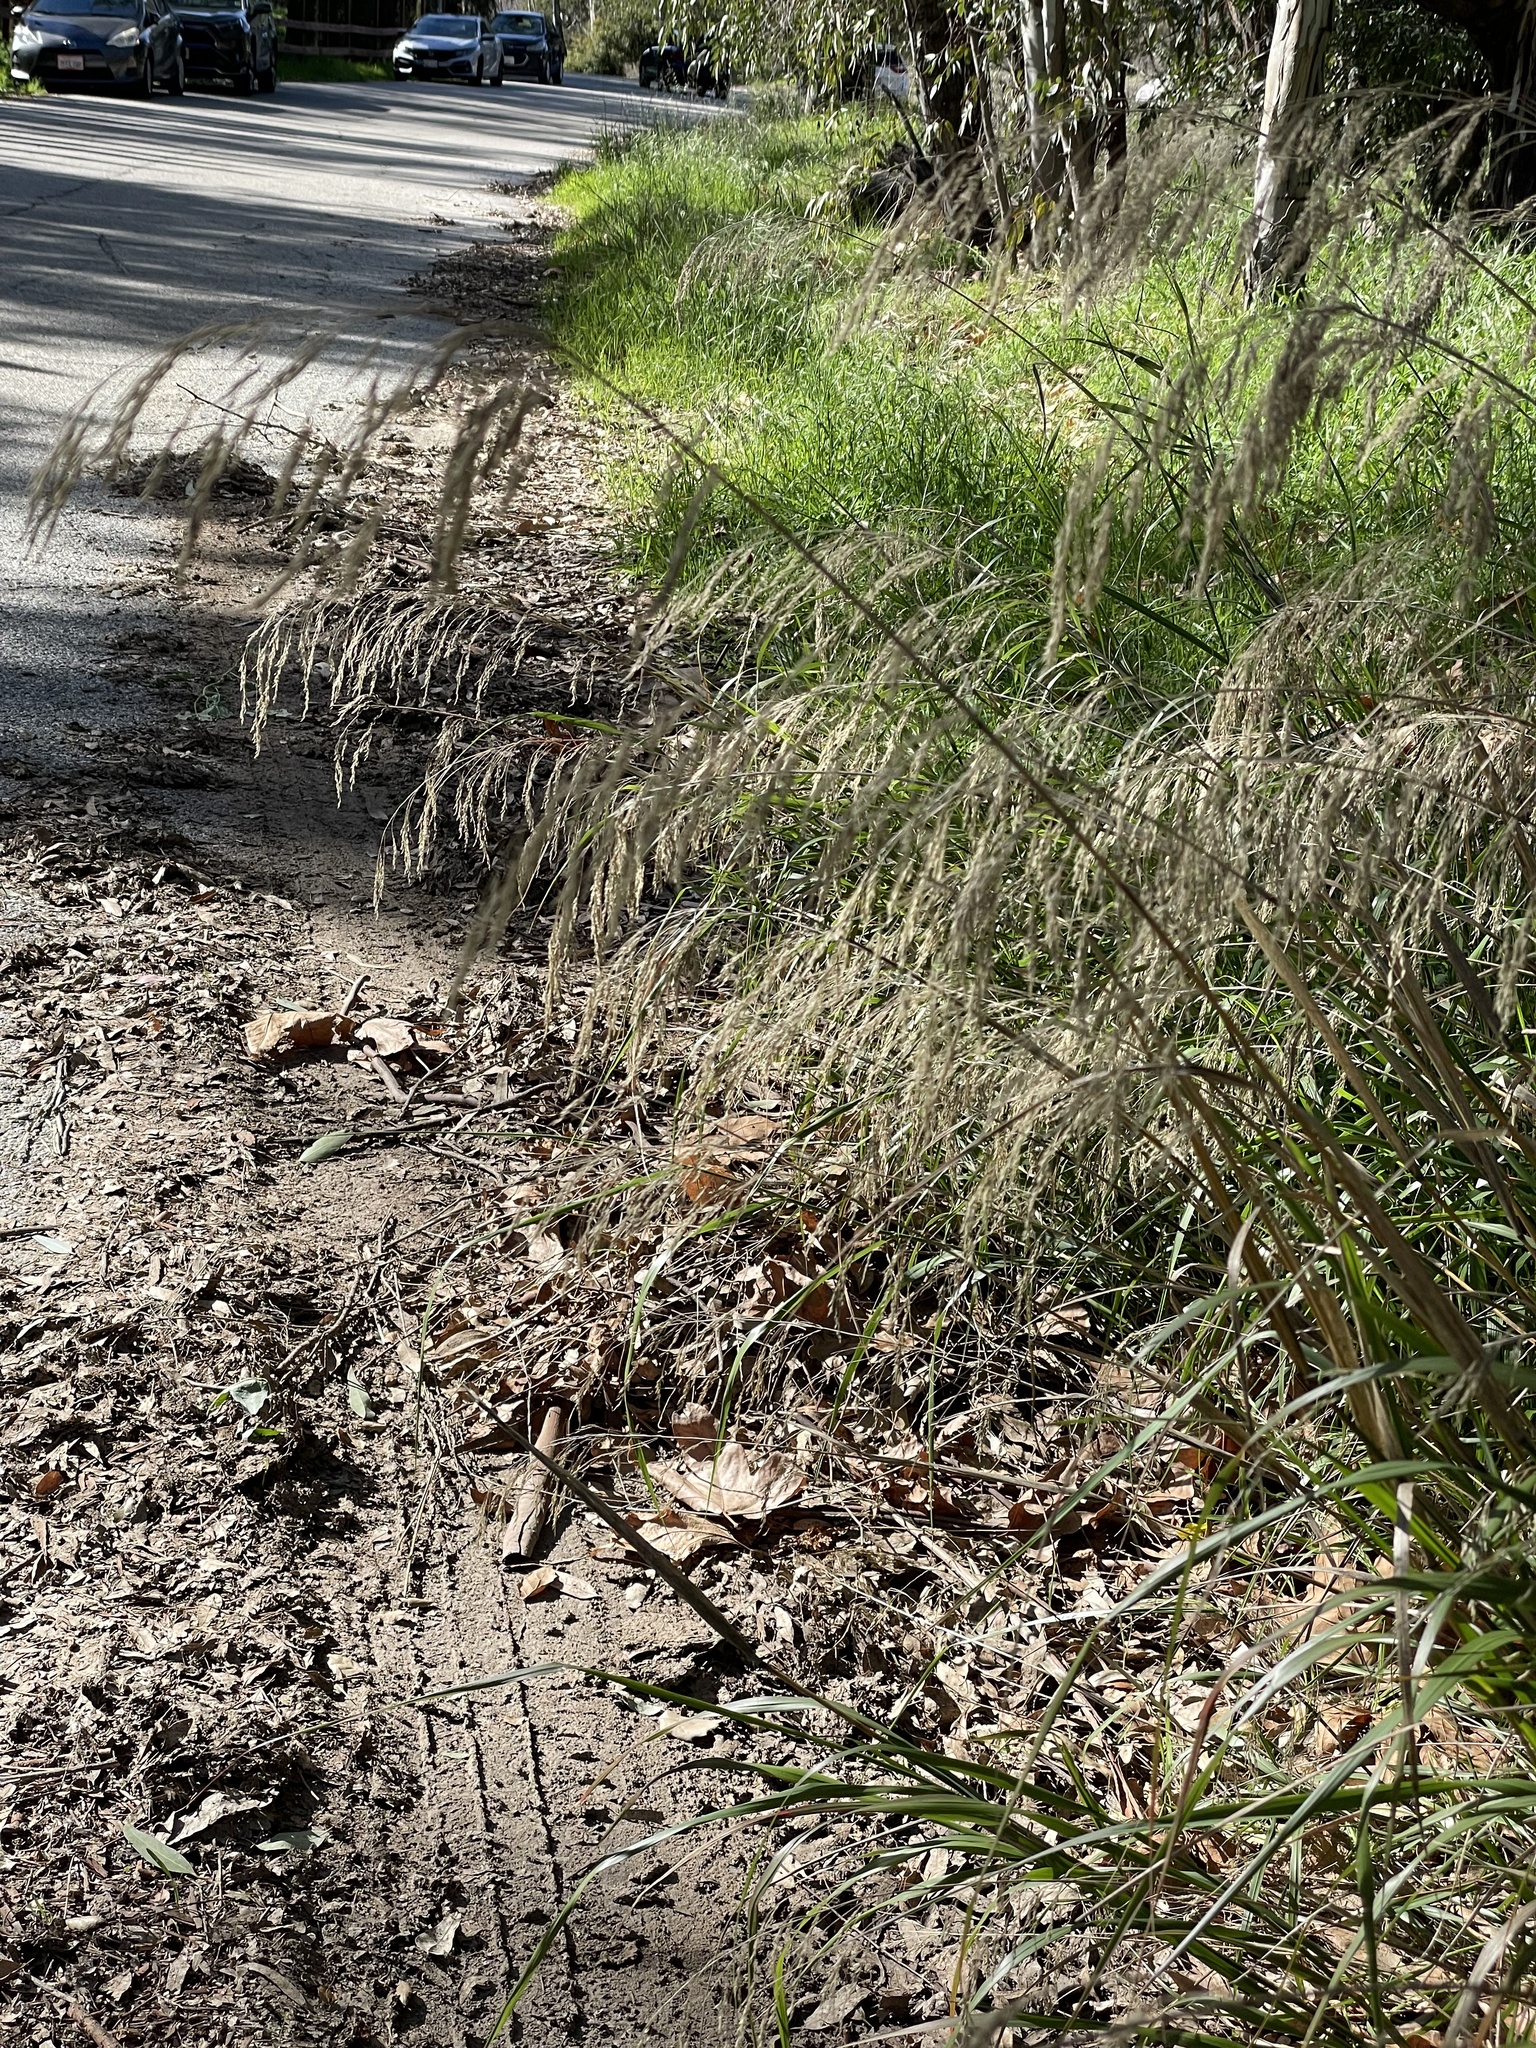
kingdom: Plantae
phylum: Tracheophyta
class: Liliopsida
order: Poales
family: Poaceae
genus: Oloptum
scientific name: Oloptum miliaceum
